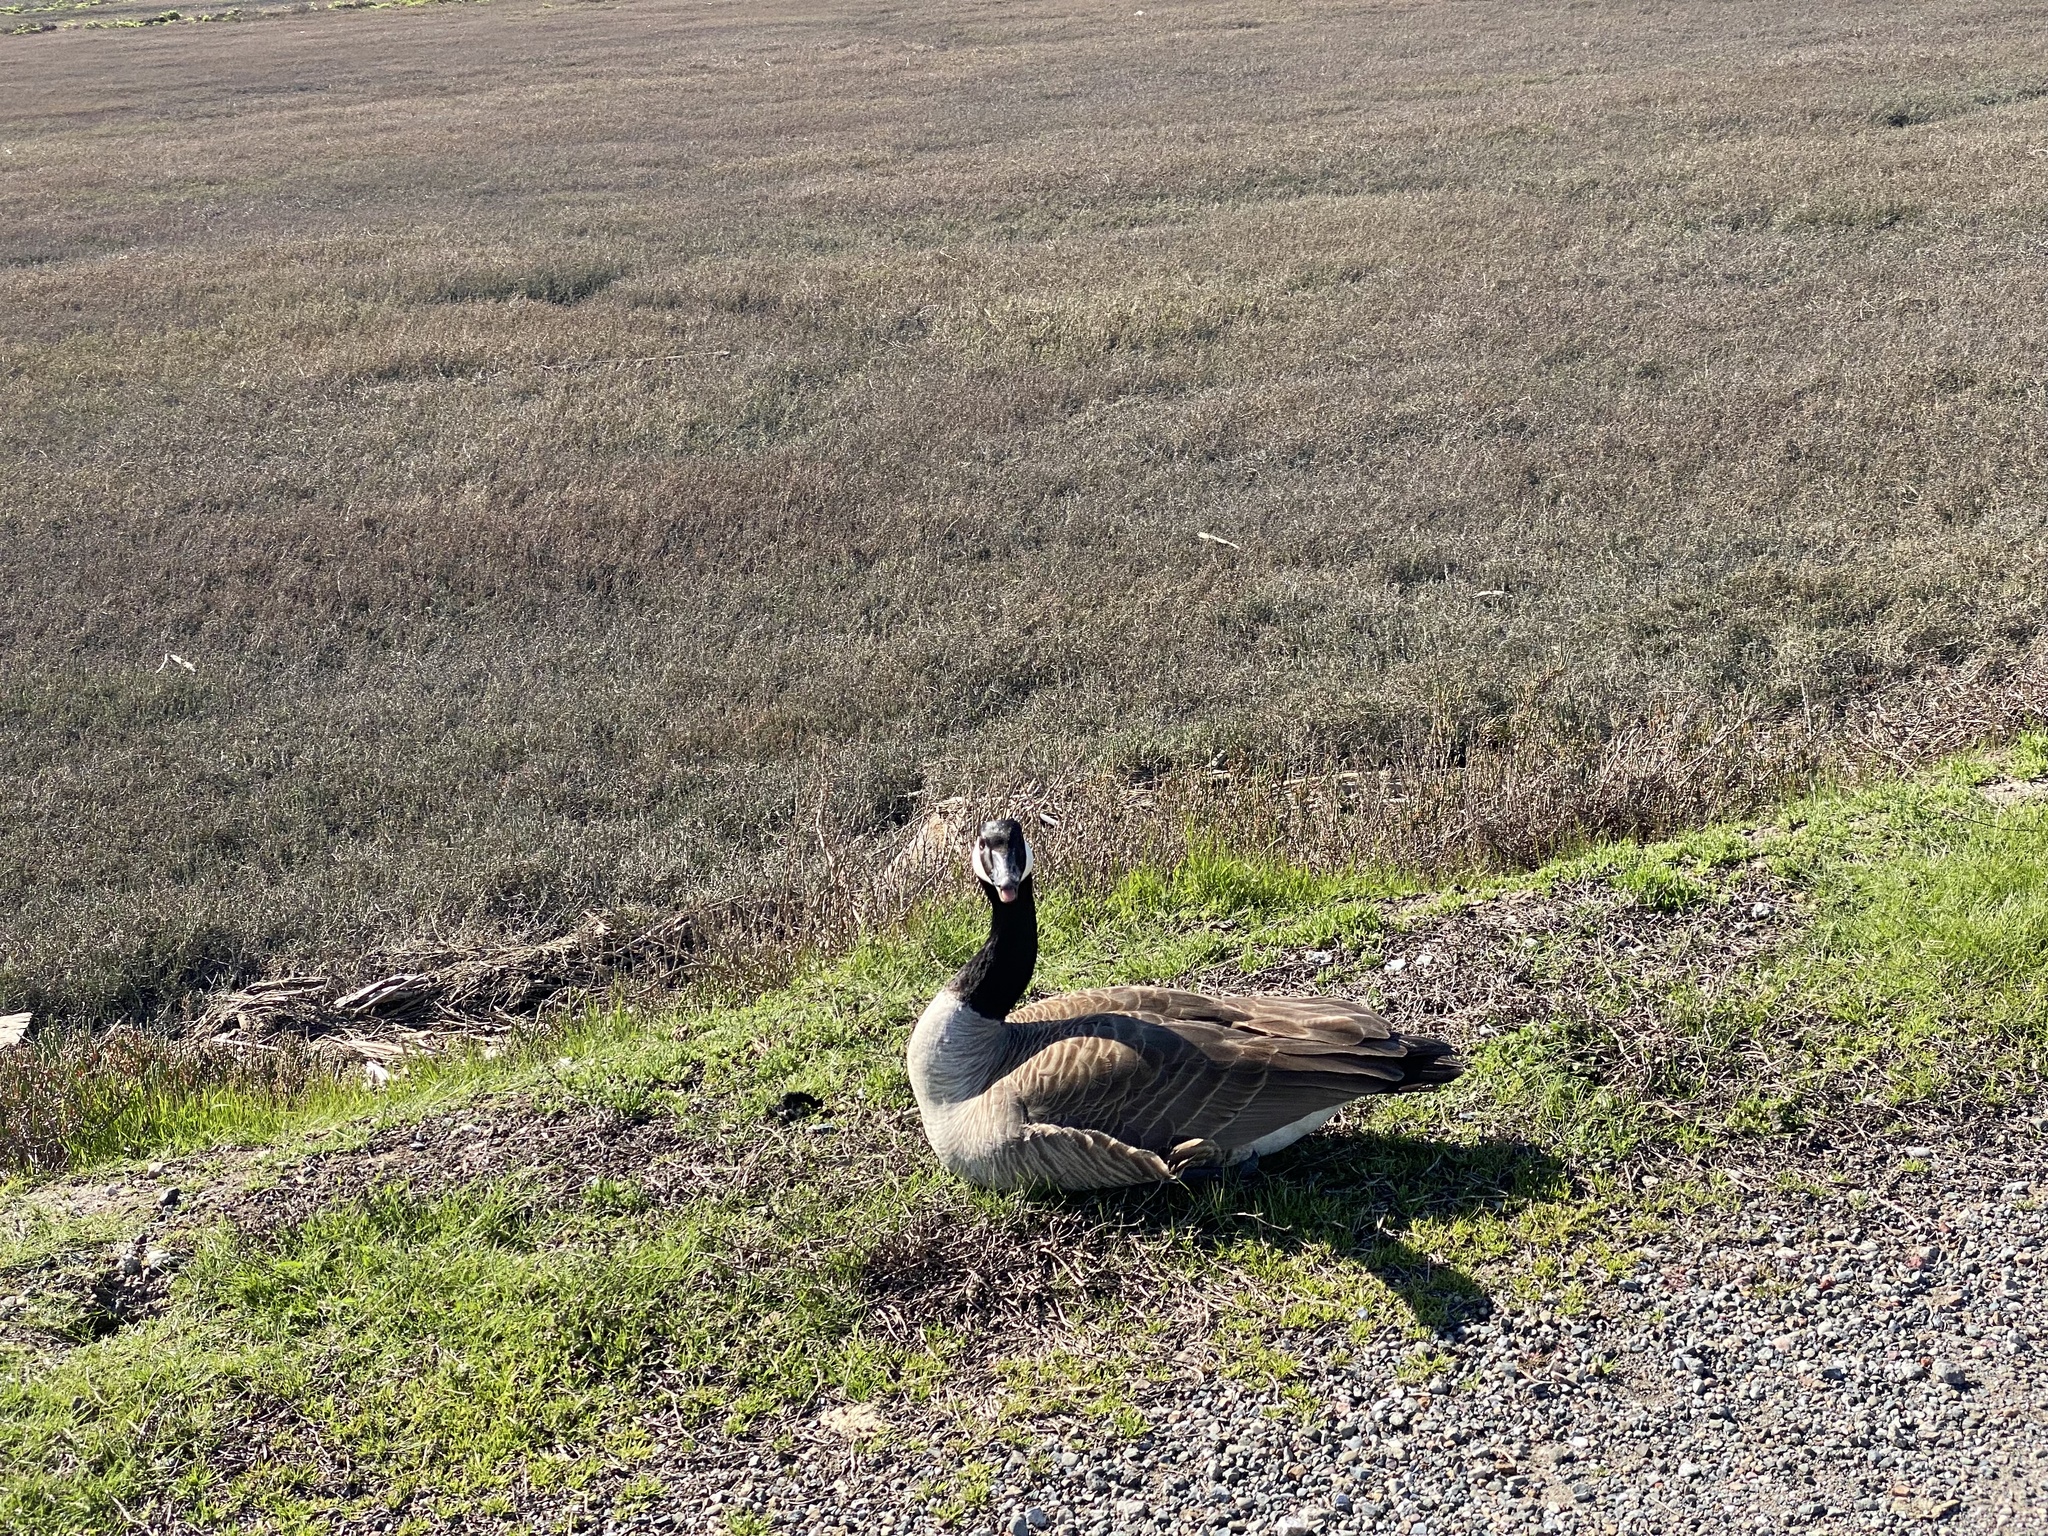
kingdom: Animalia
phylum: Chordata
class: Aves
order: Anseriformes
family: Anatidae
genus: Branta
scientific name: Branta canadensis
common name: Canada goose
